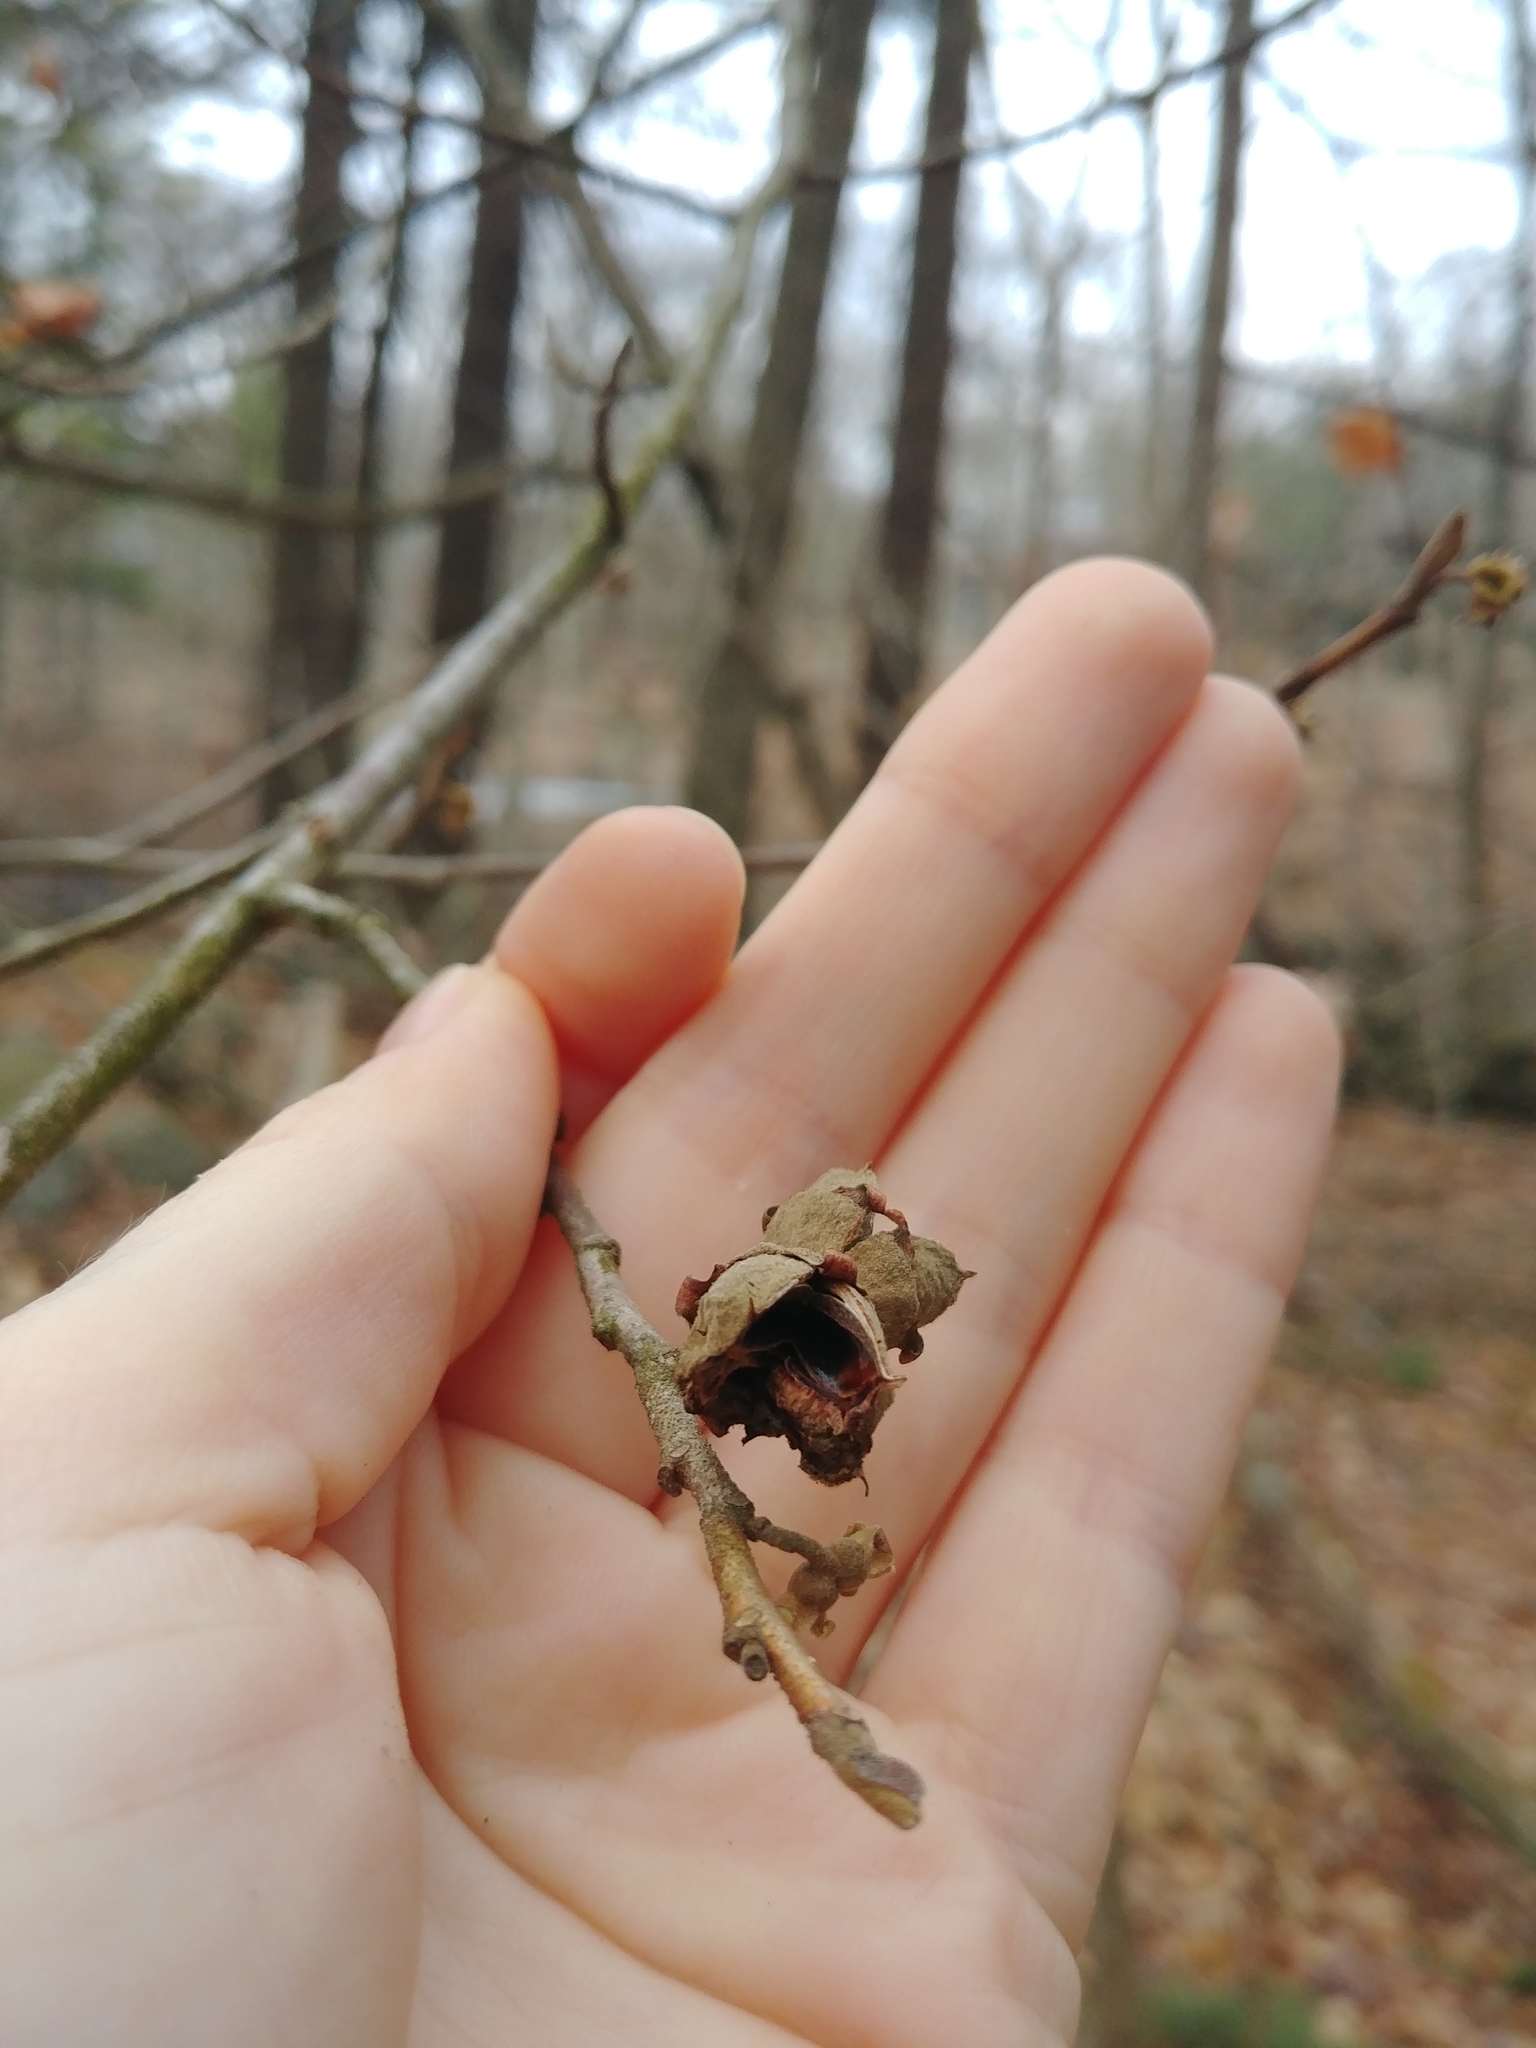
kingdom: Plantae
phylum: Tracheophyta
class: Magnoliopsida
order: Saxifragales
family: Hamamelidaceae
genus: Hamamelis
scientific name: Hamamelis virginiana
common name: Witch-hazel
